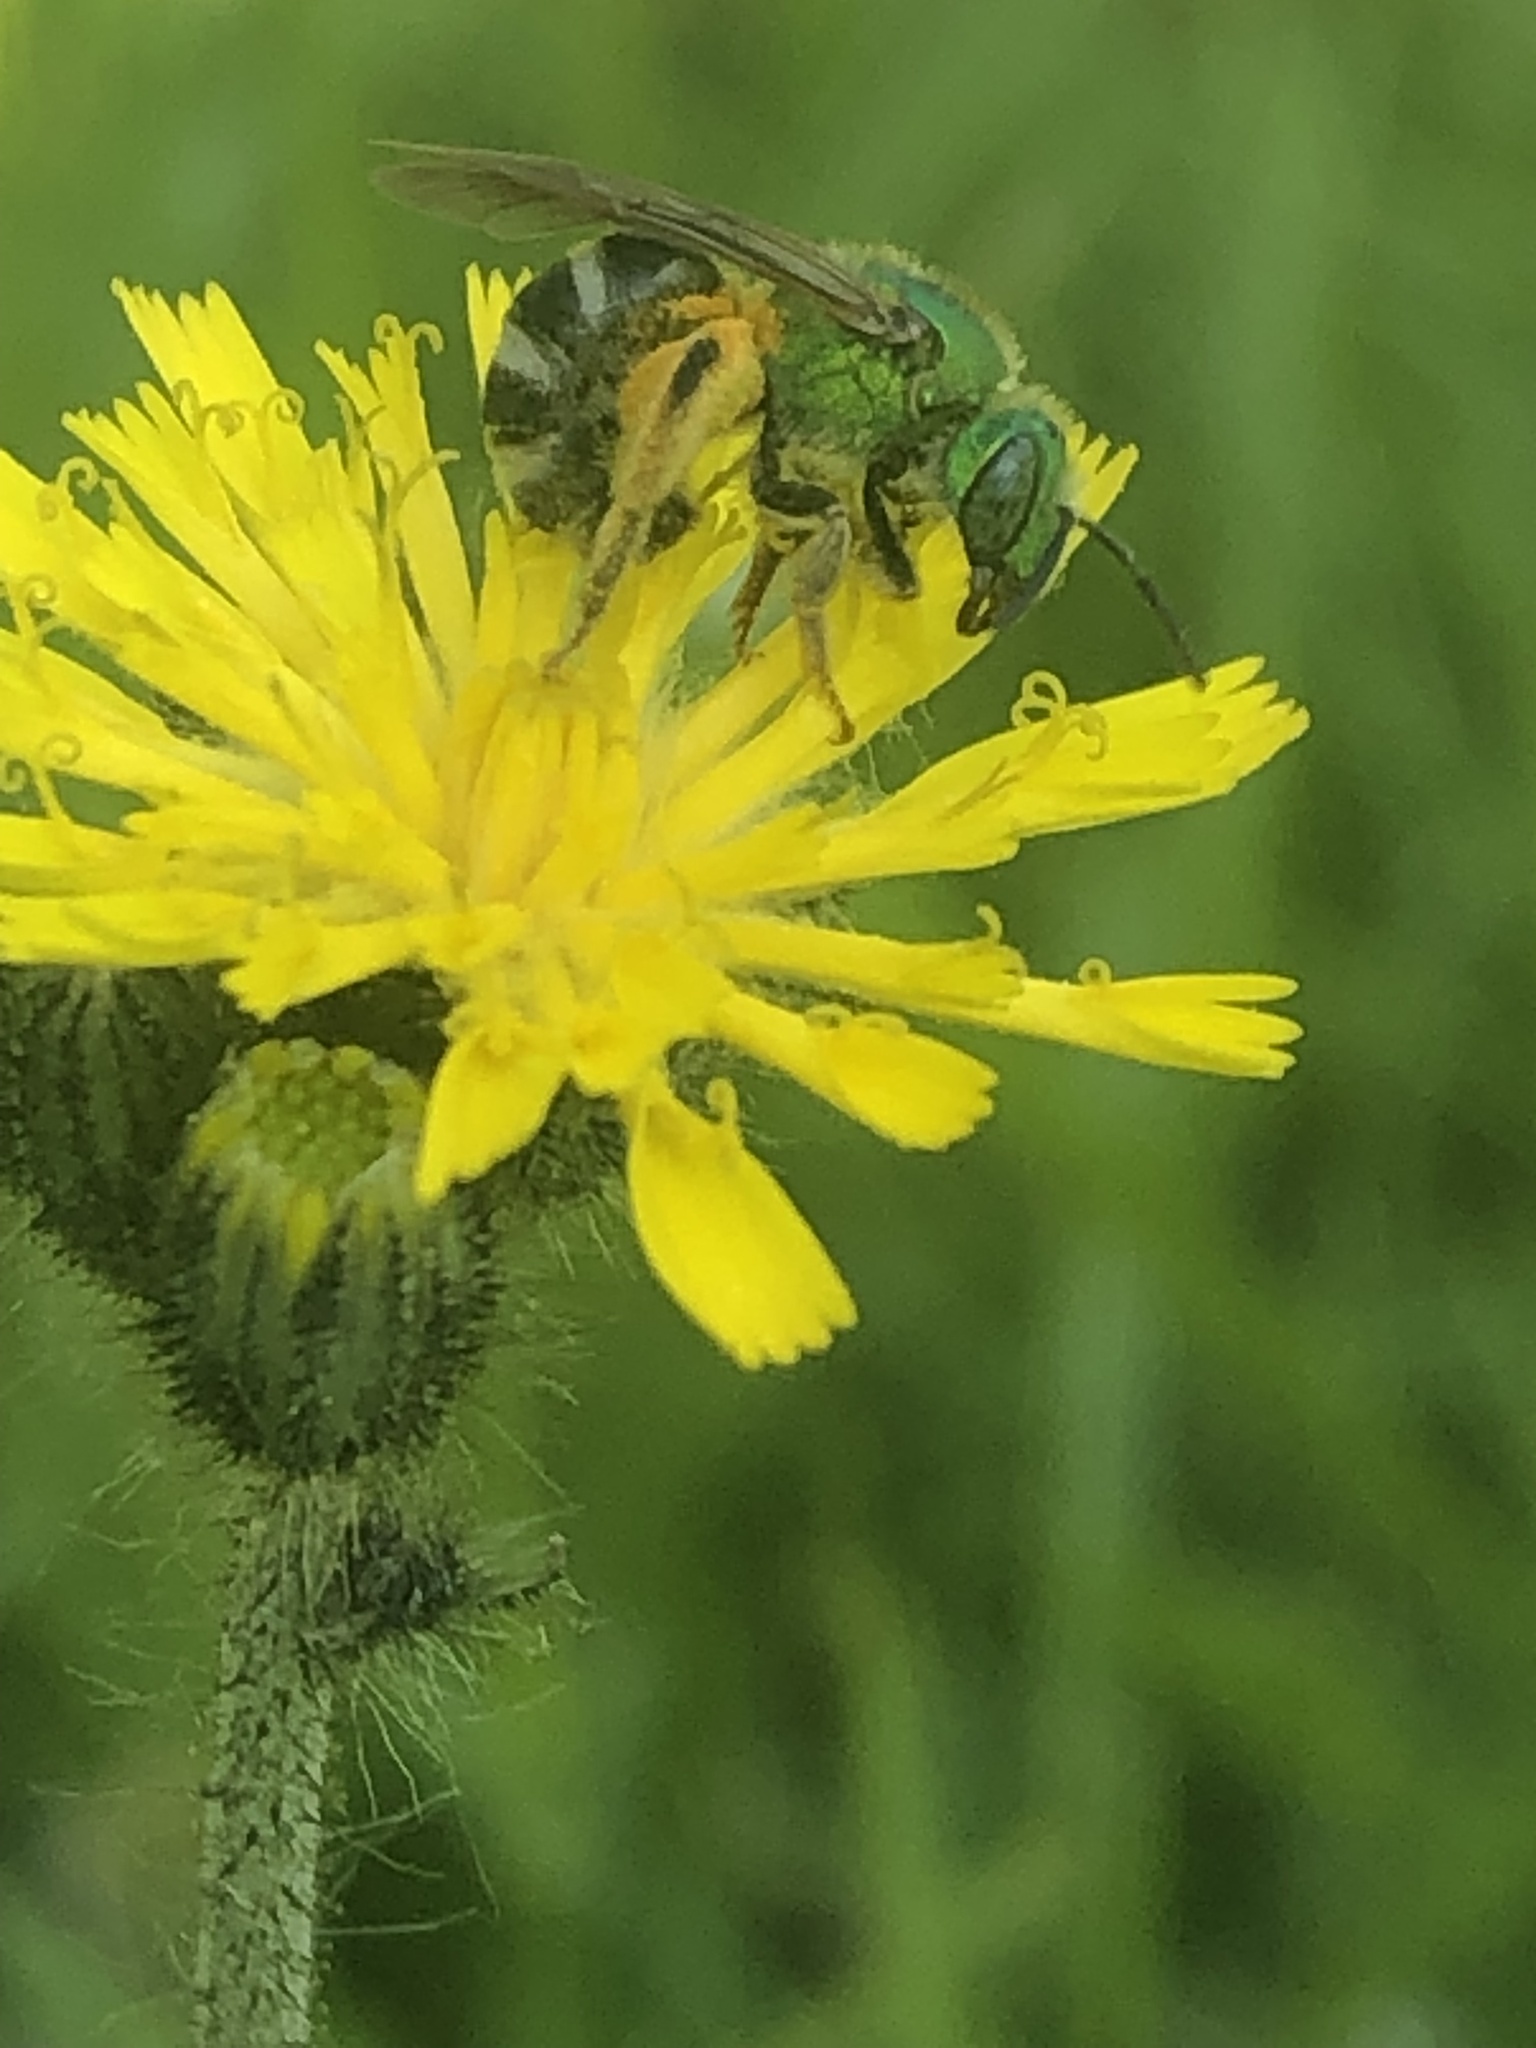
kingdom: Animalia
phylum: Arthropoda
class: Insecta
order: Hymenoptera
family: Halictidae
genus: Agapostemon
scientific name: Agapostemon virescens
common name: Bicolored striped sweat bee
